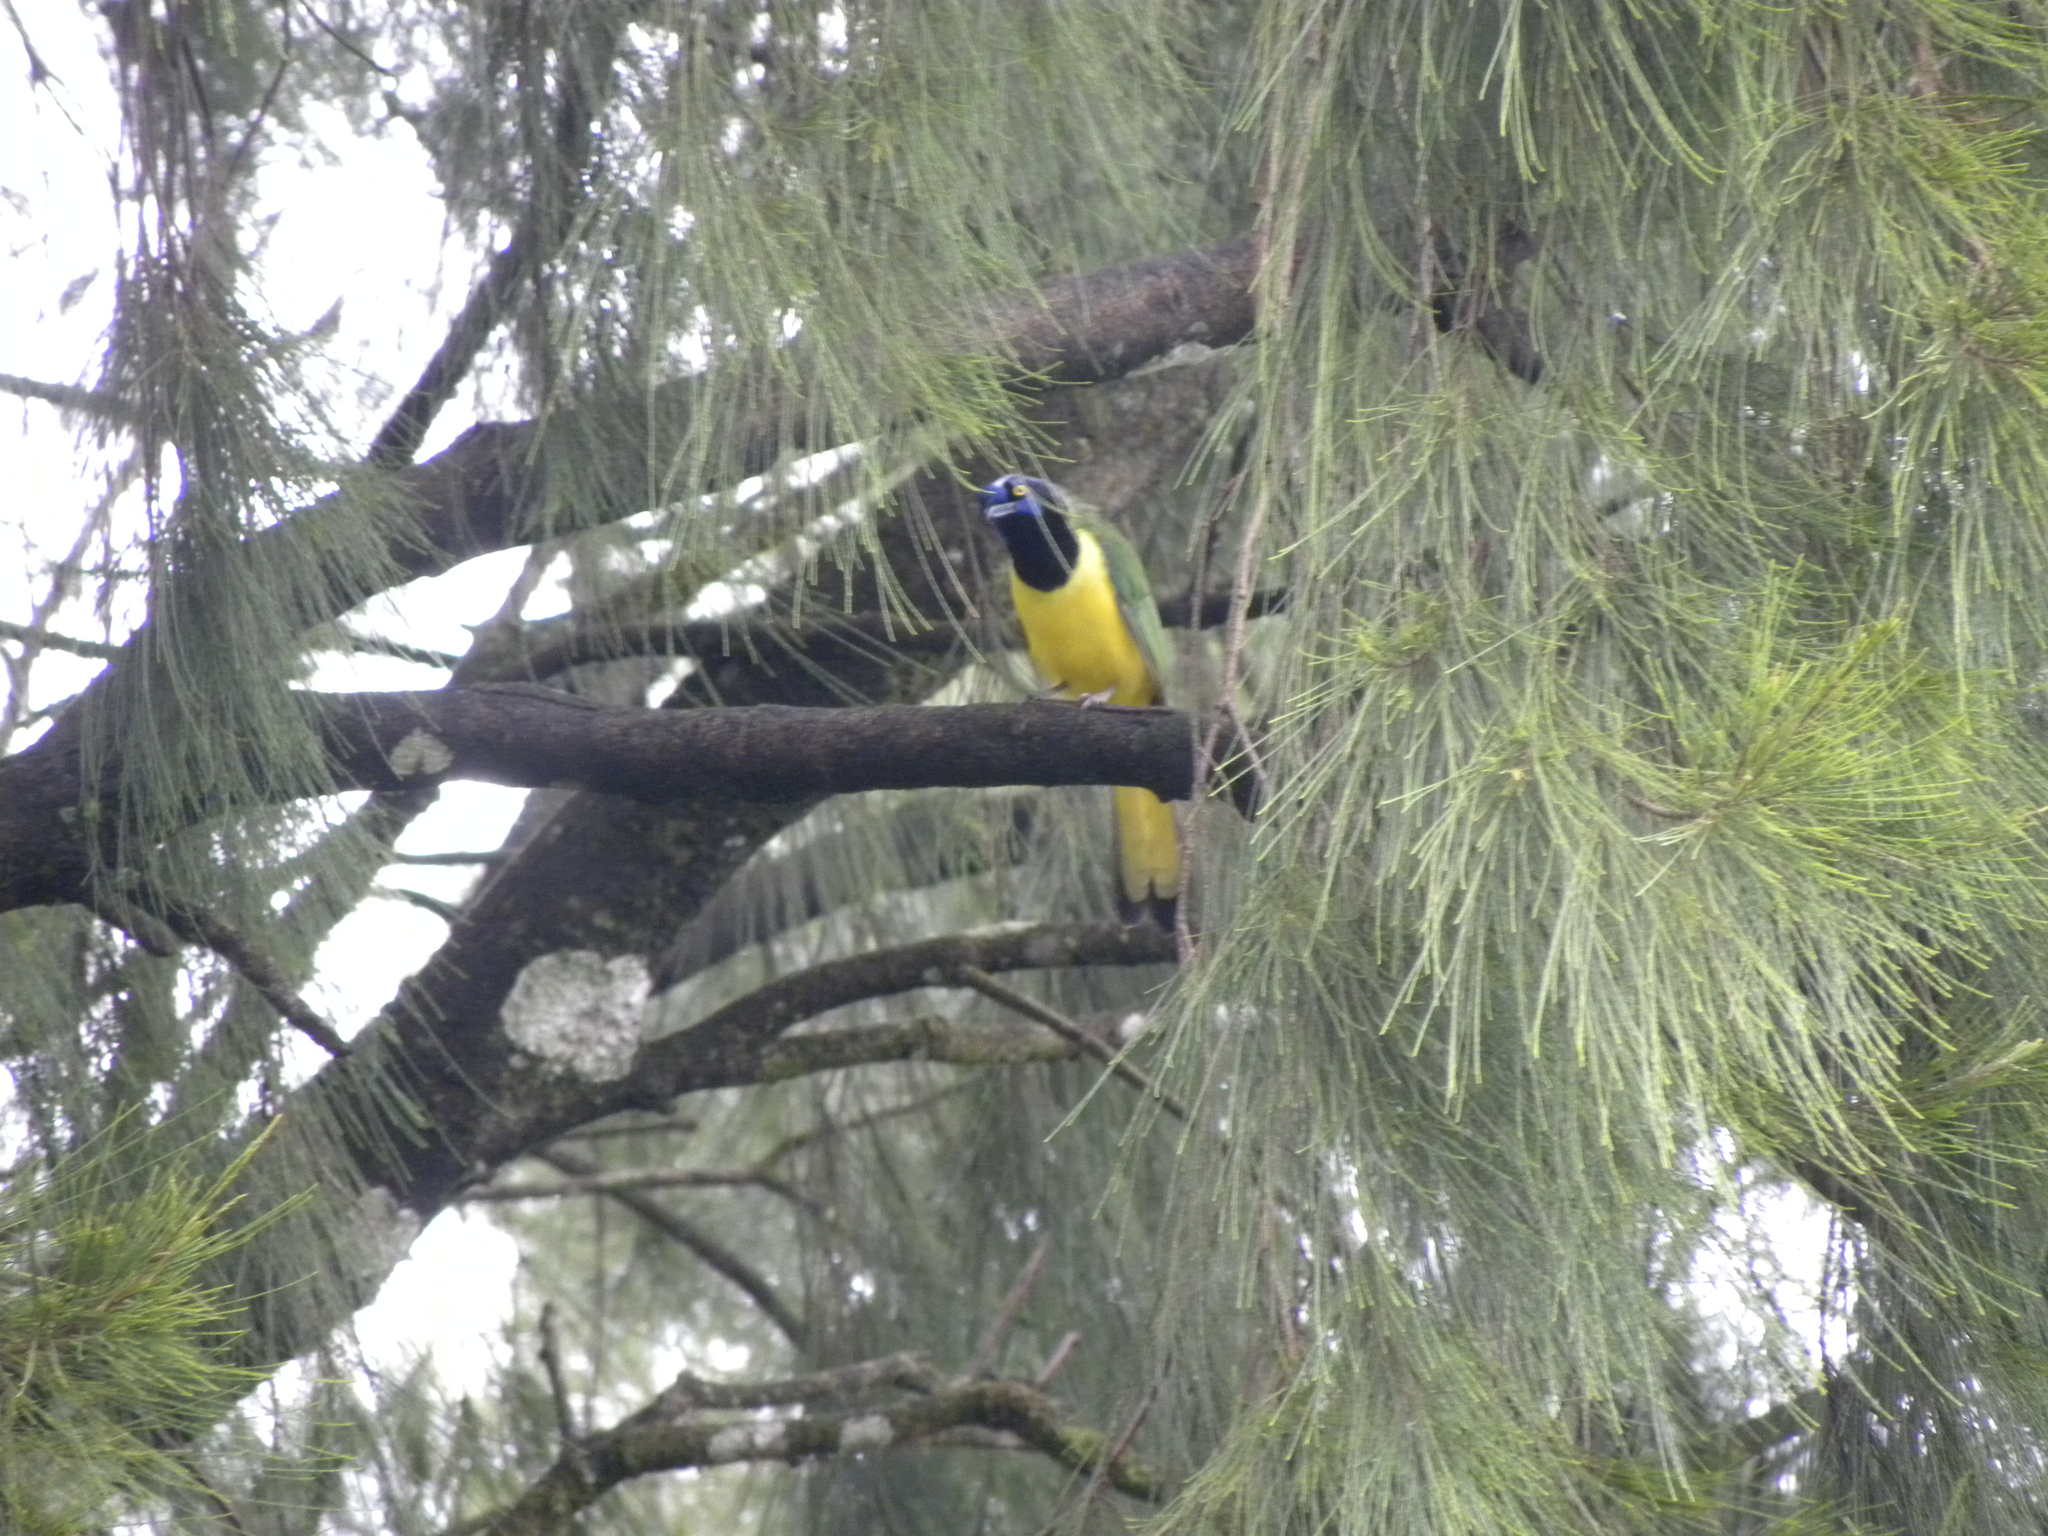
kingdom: Animalia
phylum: Chordata
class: Aves
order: Passeriformes
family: Corvidae
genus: Cyanocorax
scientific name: Cyanocorax yncas
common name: Green jay
